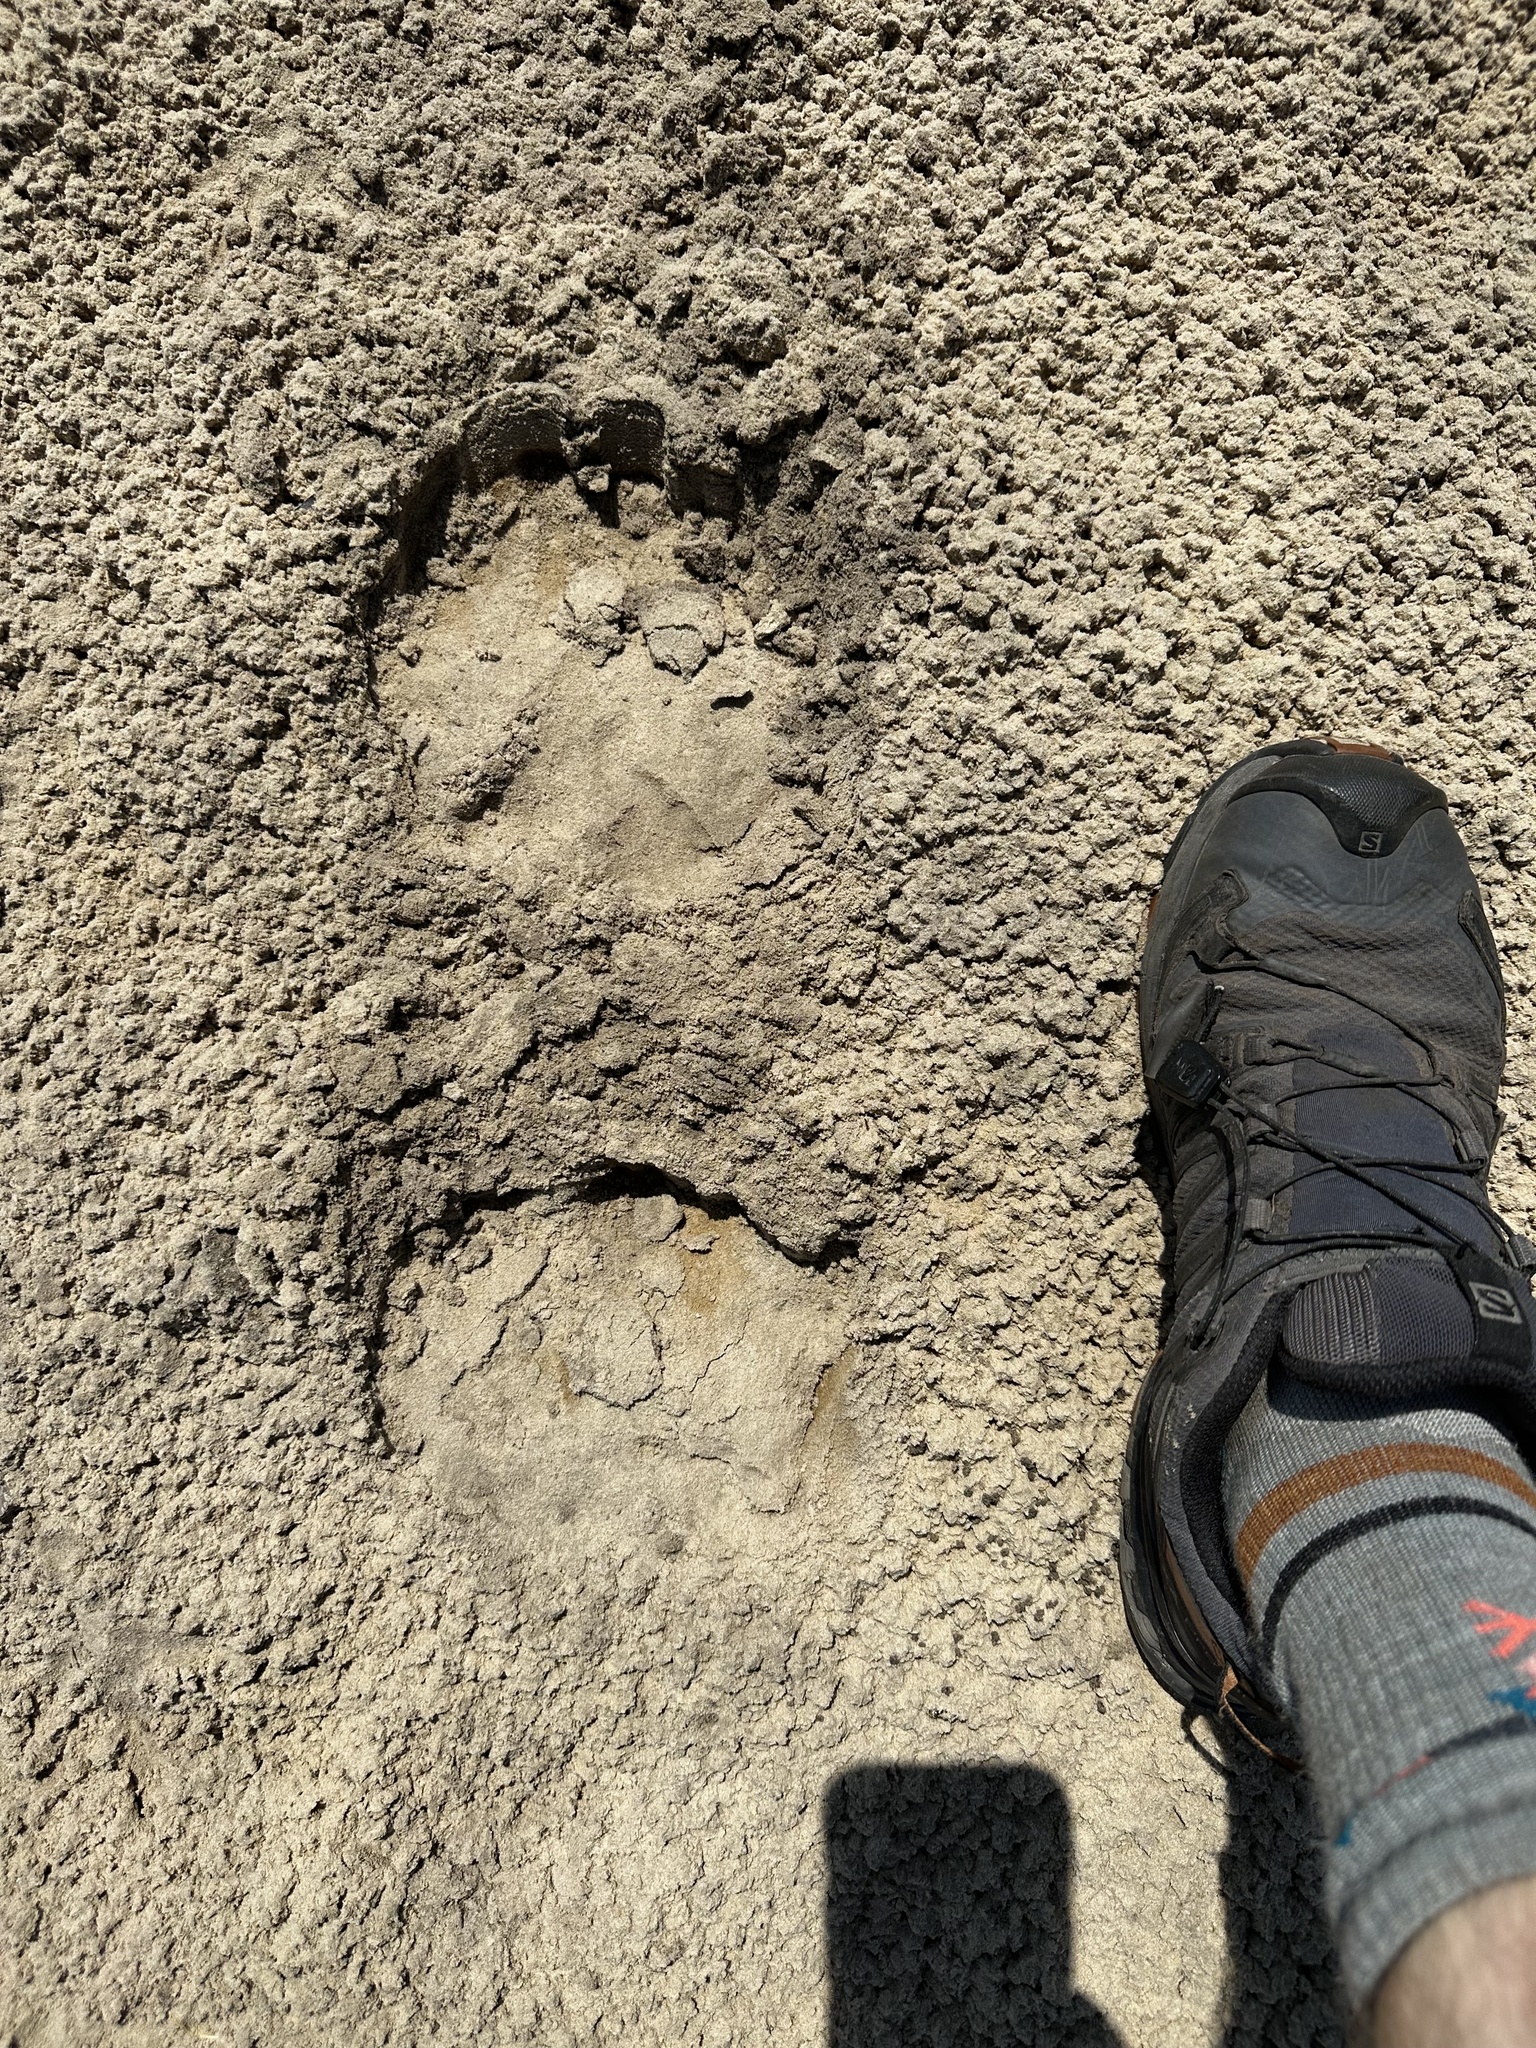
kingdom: Animalia
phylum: Chordata
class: Mammalia
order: Pilosa
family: Myrmecophagidae
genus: Myrmecophaga
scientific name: Myrmecophaga tridactyla
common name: Giant anteater
